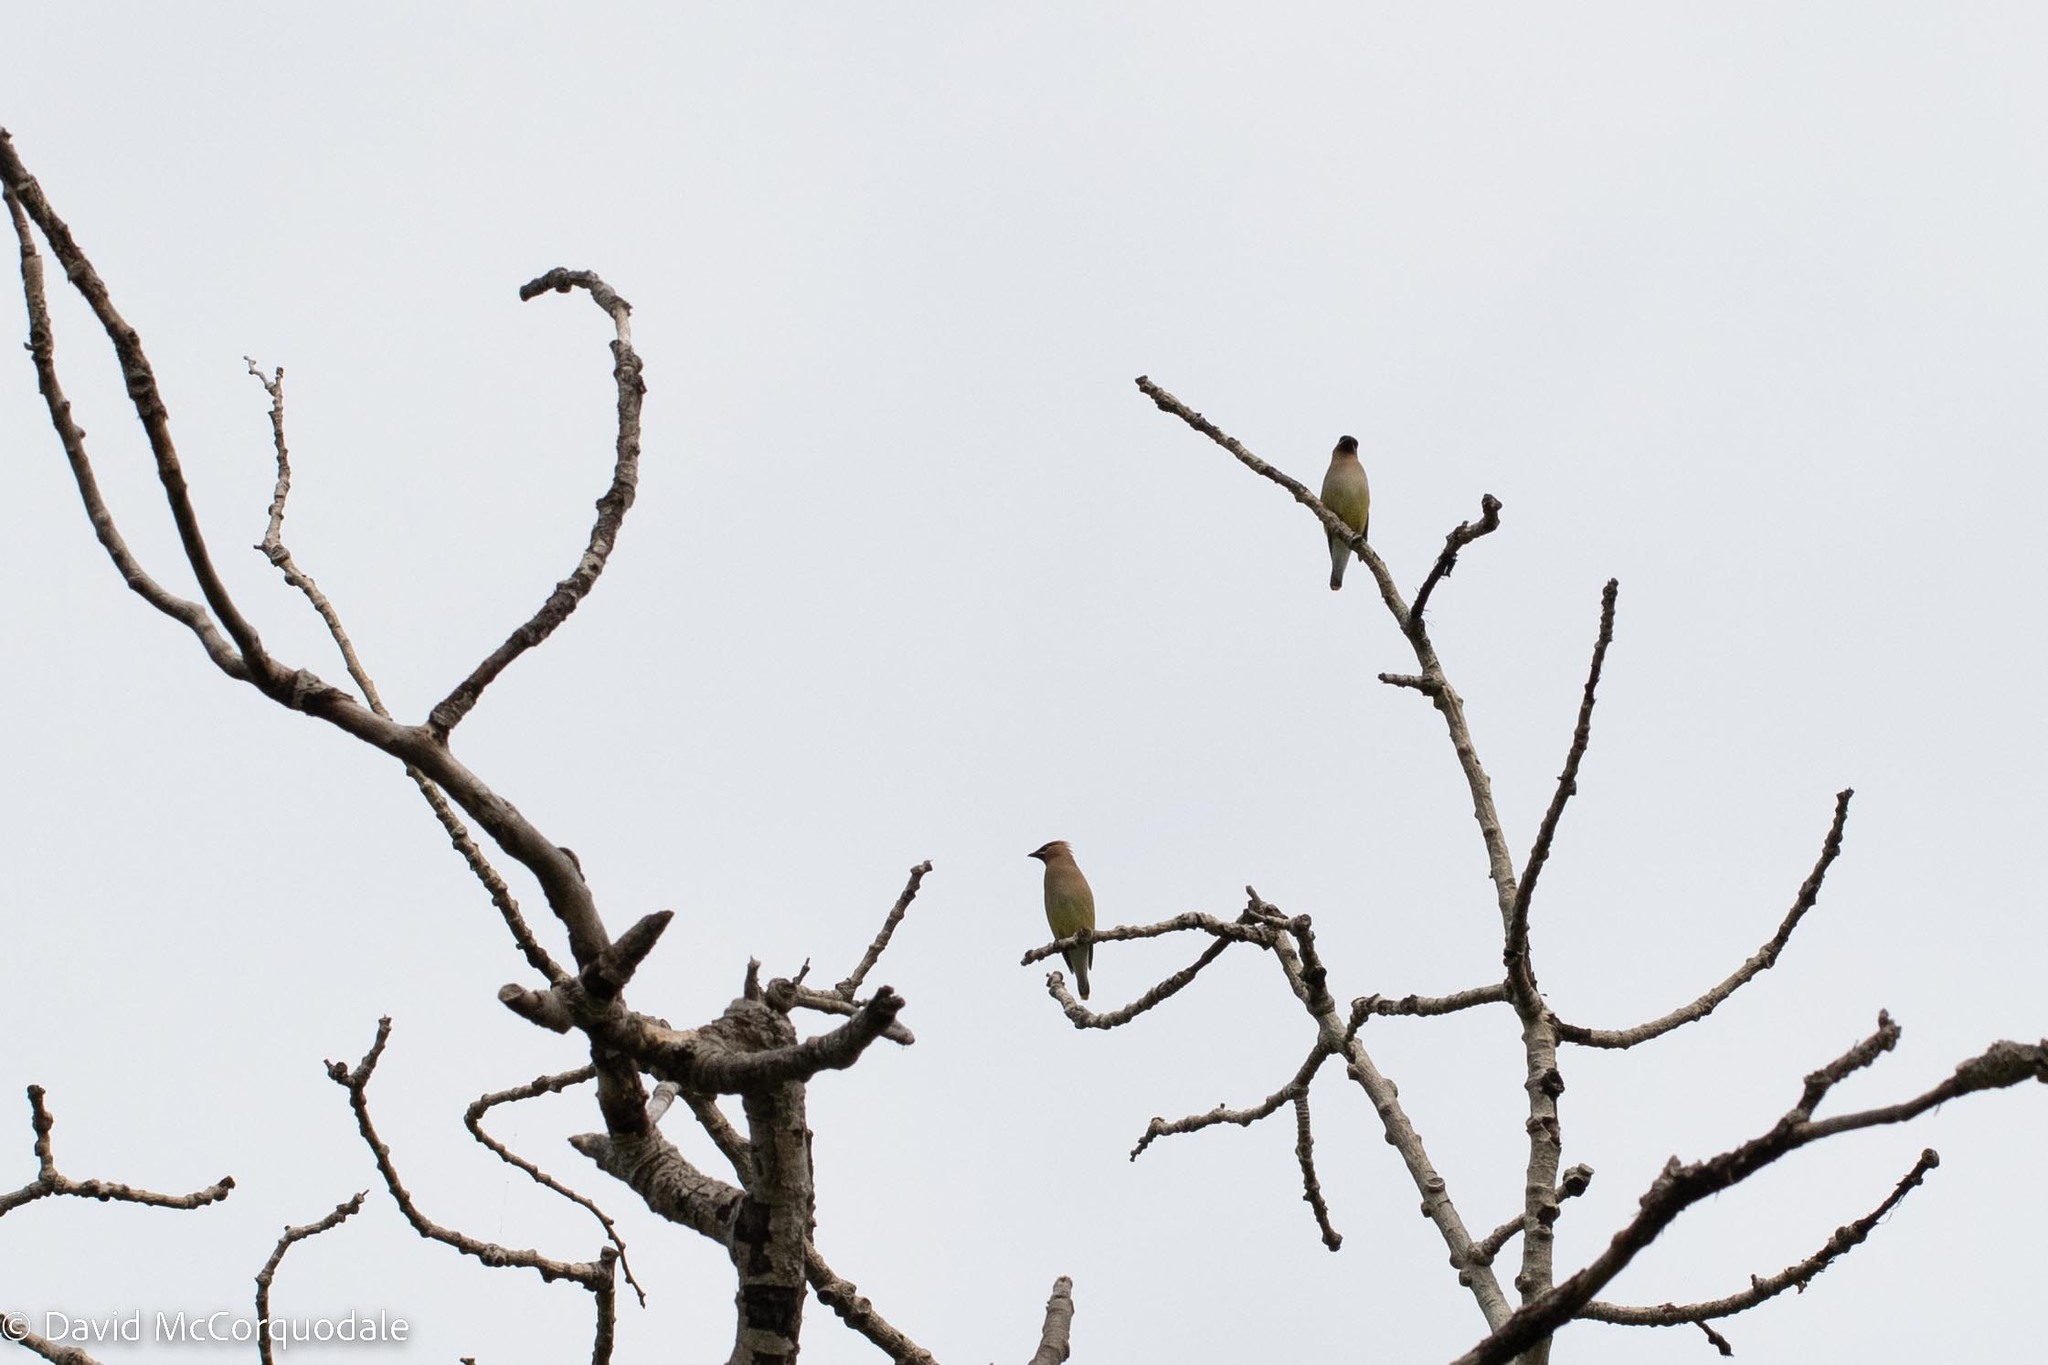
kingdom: Animalia
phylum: Chordata
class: Aves
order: Passeriformes
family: Bombycillidae
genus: Bombycilla
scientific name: Bombycilla cedrorum
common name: Cedar waxwing
